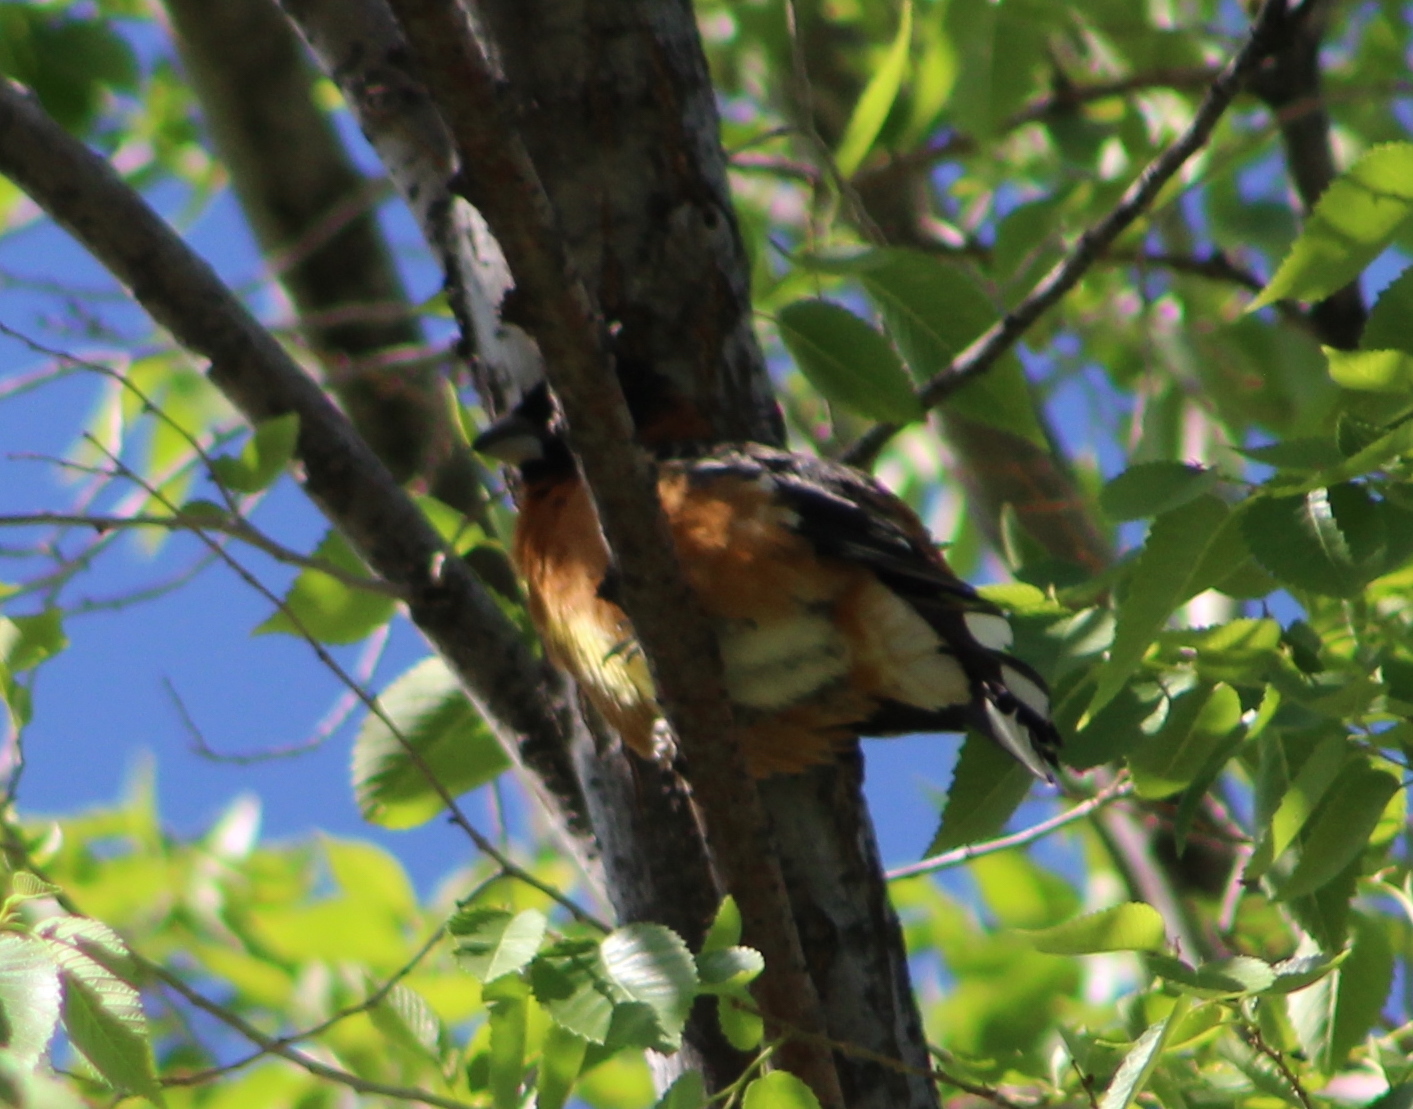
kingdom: Animalia
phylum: Chordata
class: Aves
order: Passeriformes
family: Cardinalidae
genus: Pheucticus
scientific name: Pheucticus melanocephalus
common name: Black-headed grosbeak
